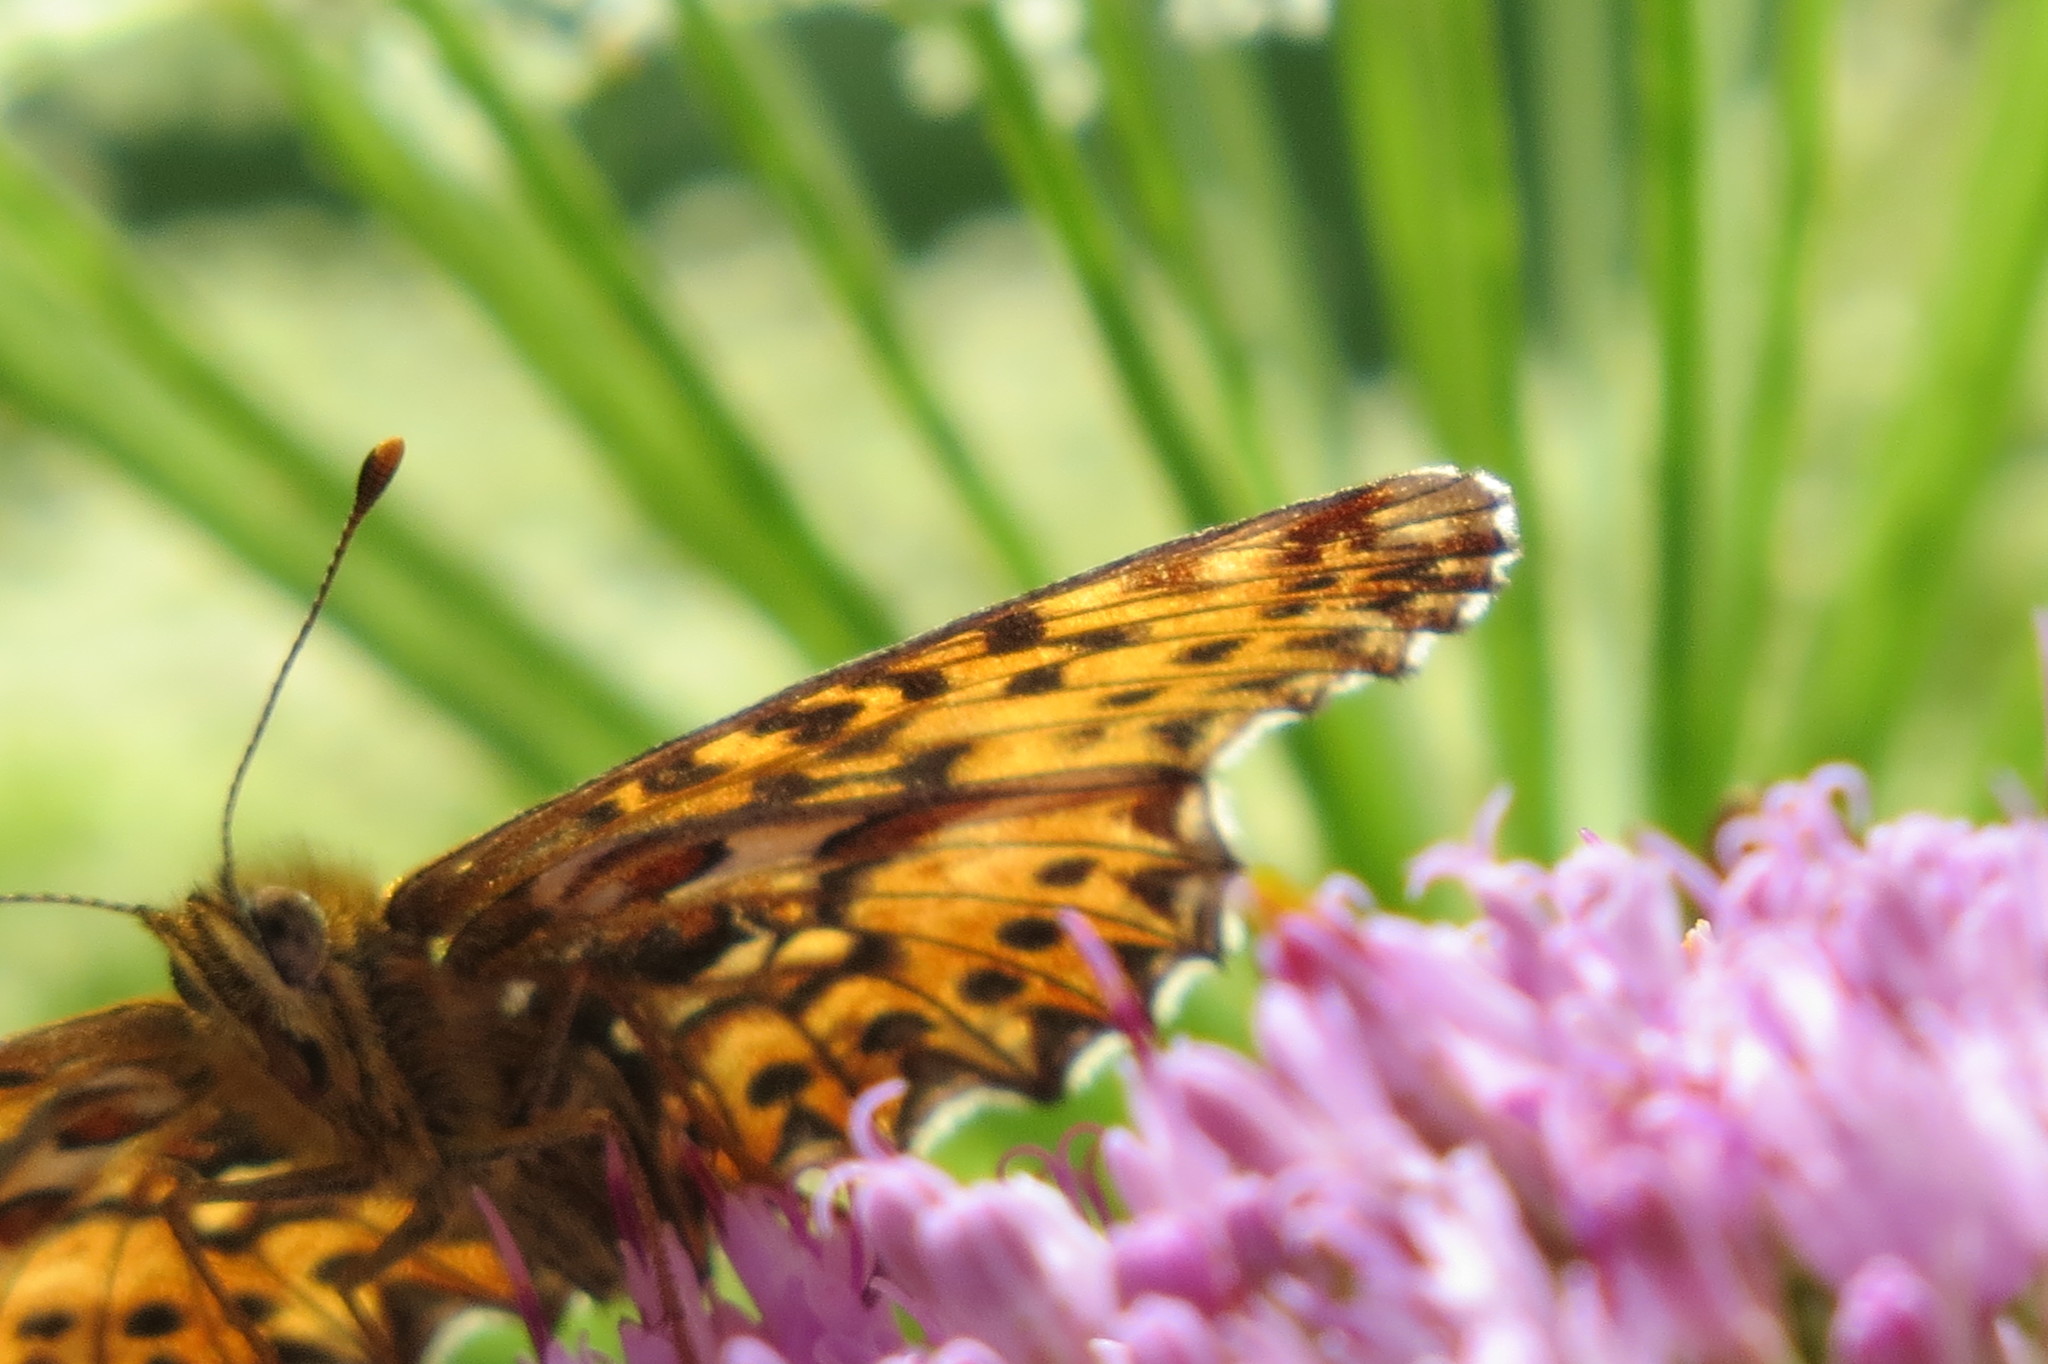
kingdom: Animalia
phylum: Arthropoda
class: Insecta
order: Lepidoptera
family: Nymphalidae
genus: Boloria
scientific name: Boloria titania
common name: Titania's fritillary
